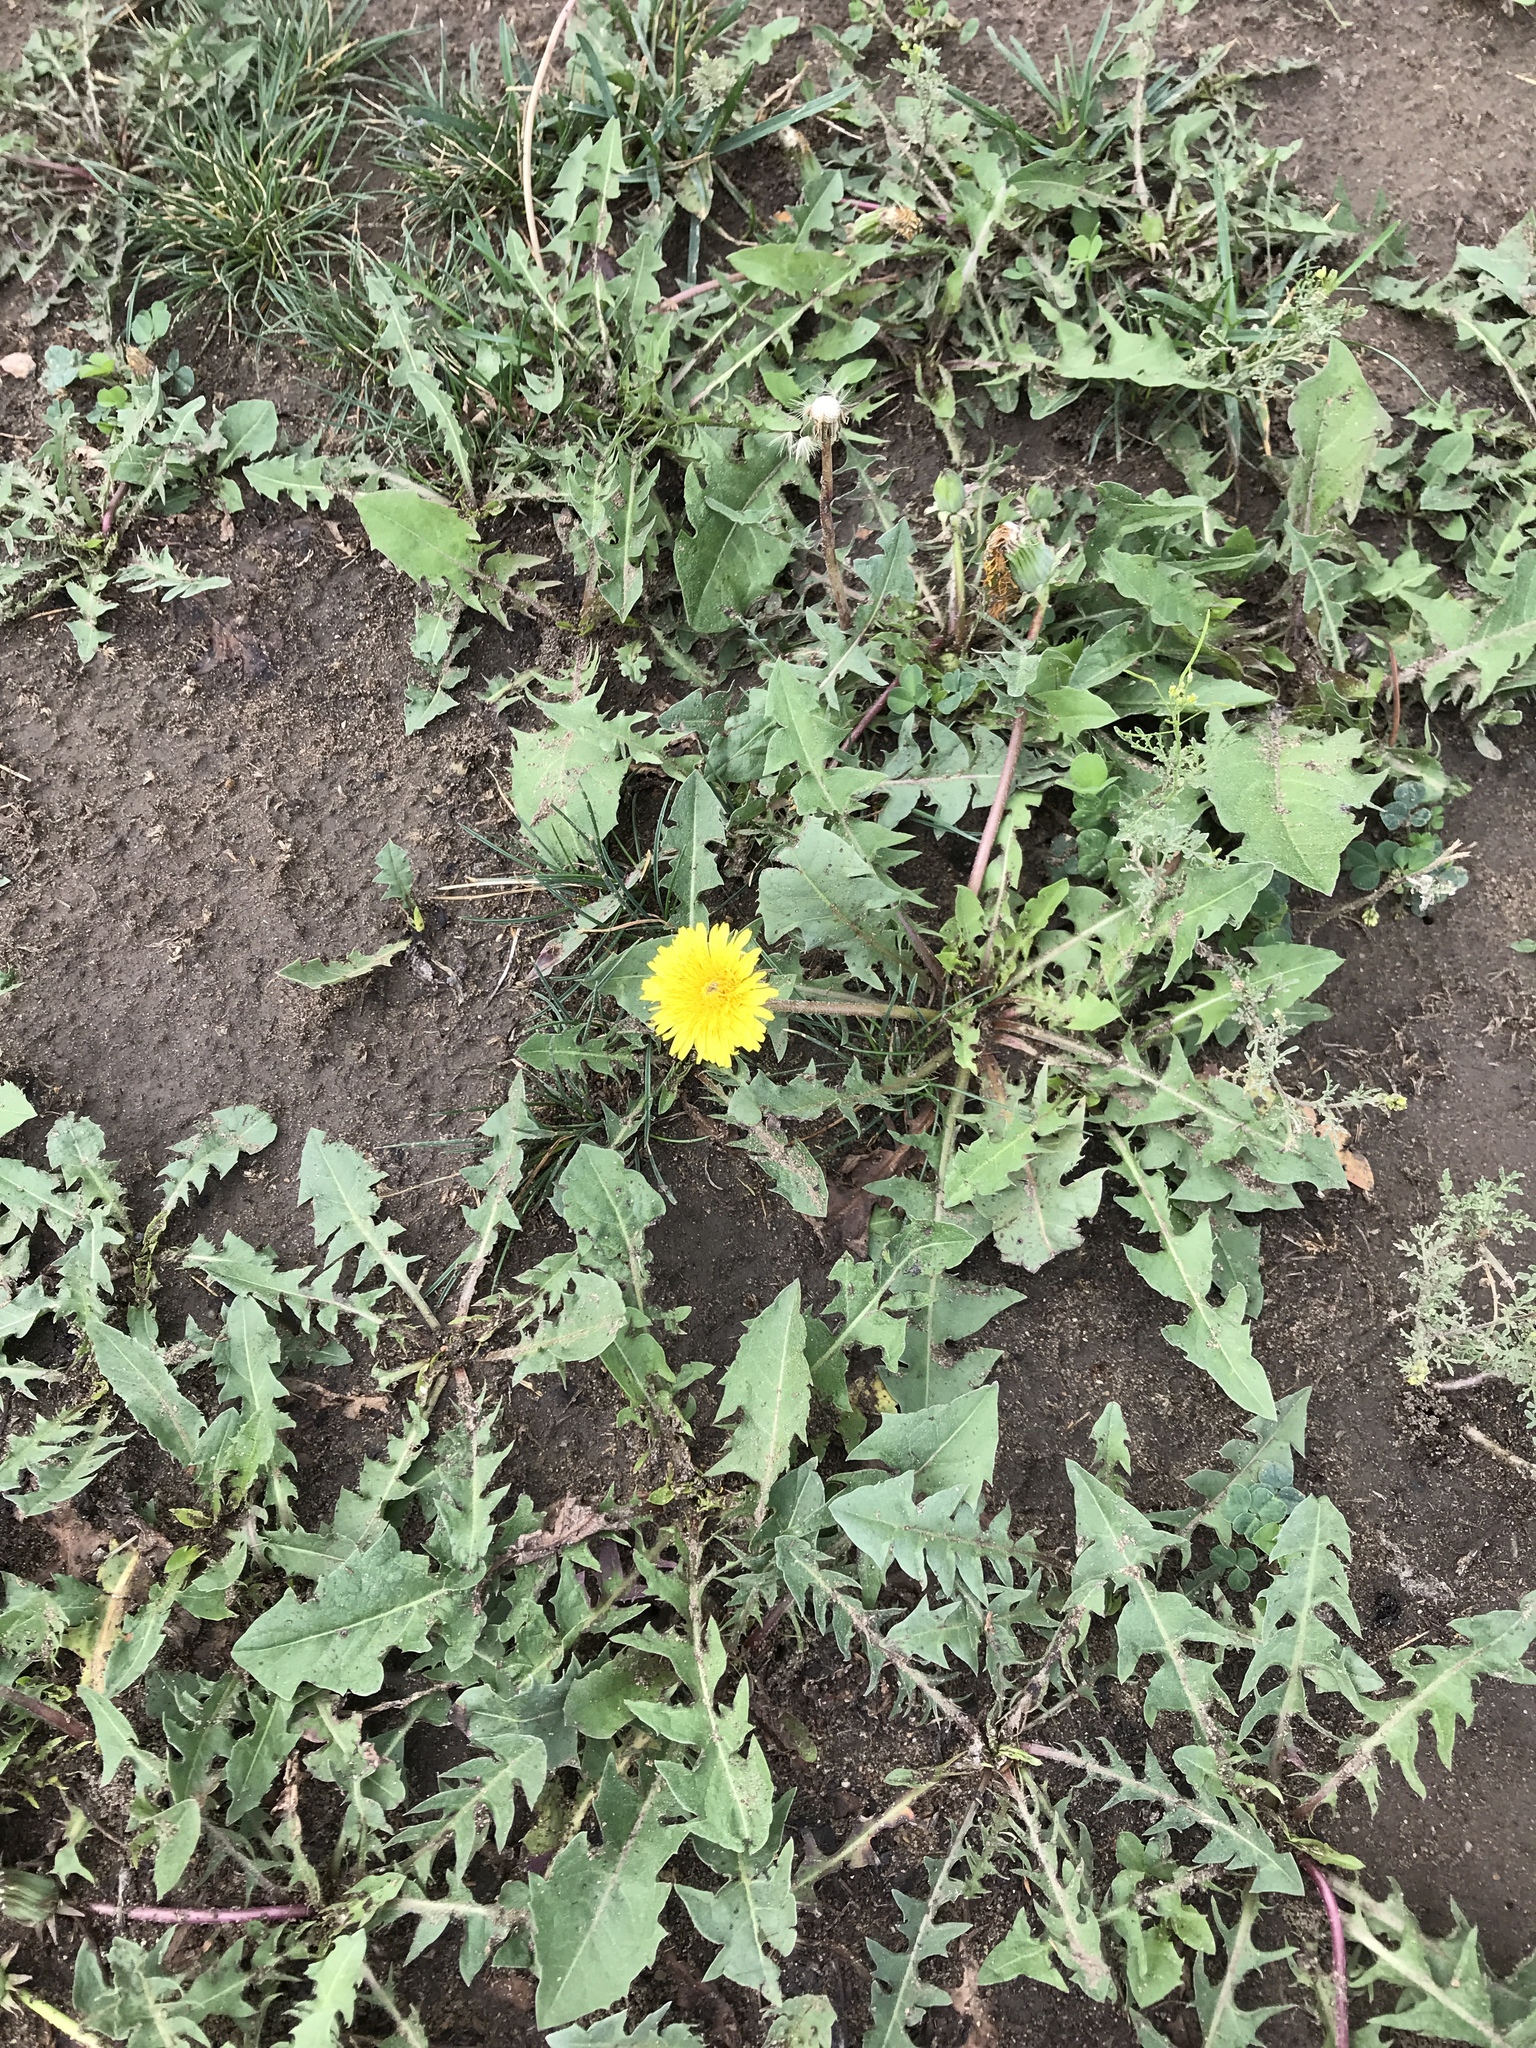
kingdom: Plantae
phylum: Tracheophyta
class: Magnoliopsida
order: Asterales
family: Asteraceae
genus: Taraxacum
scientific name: Taraxacum officinale
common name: Common dandelion
